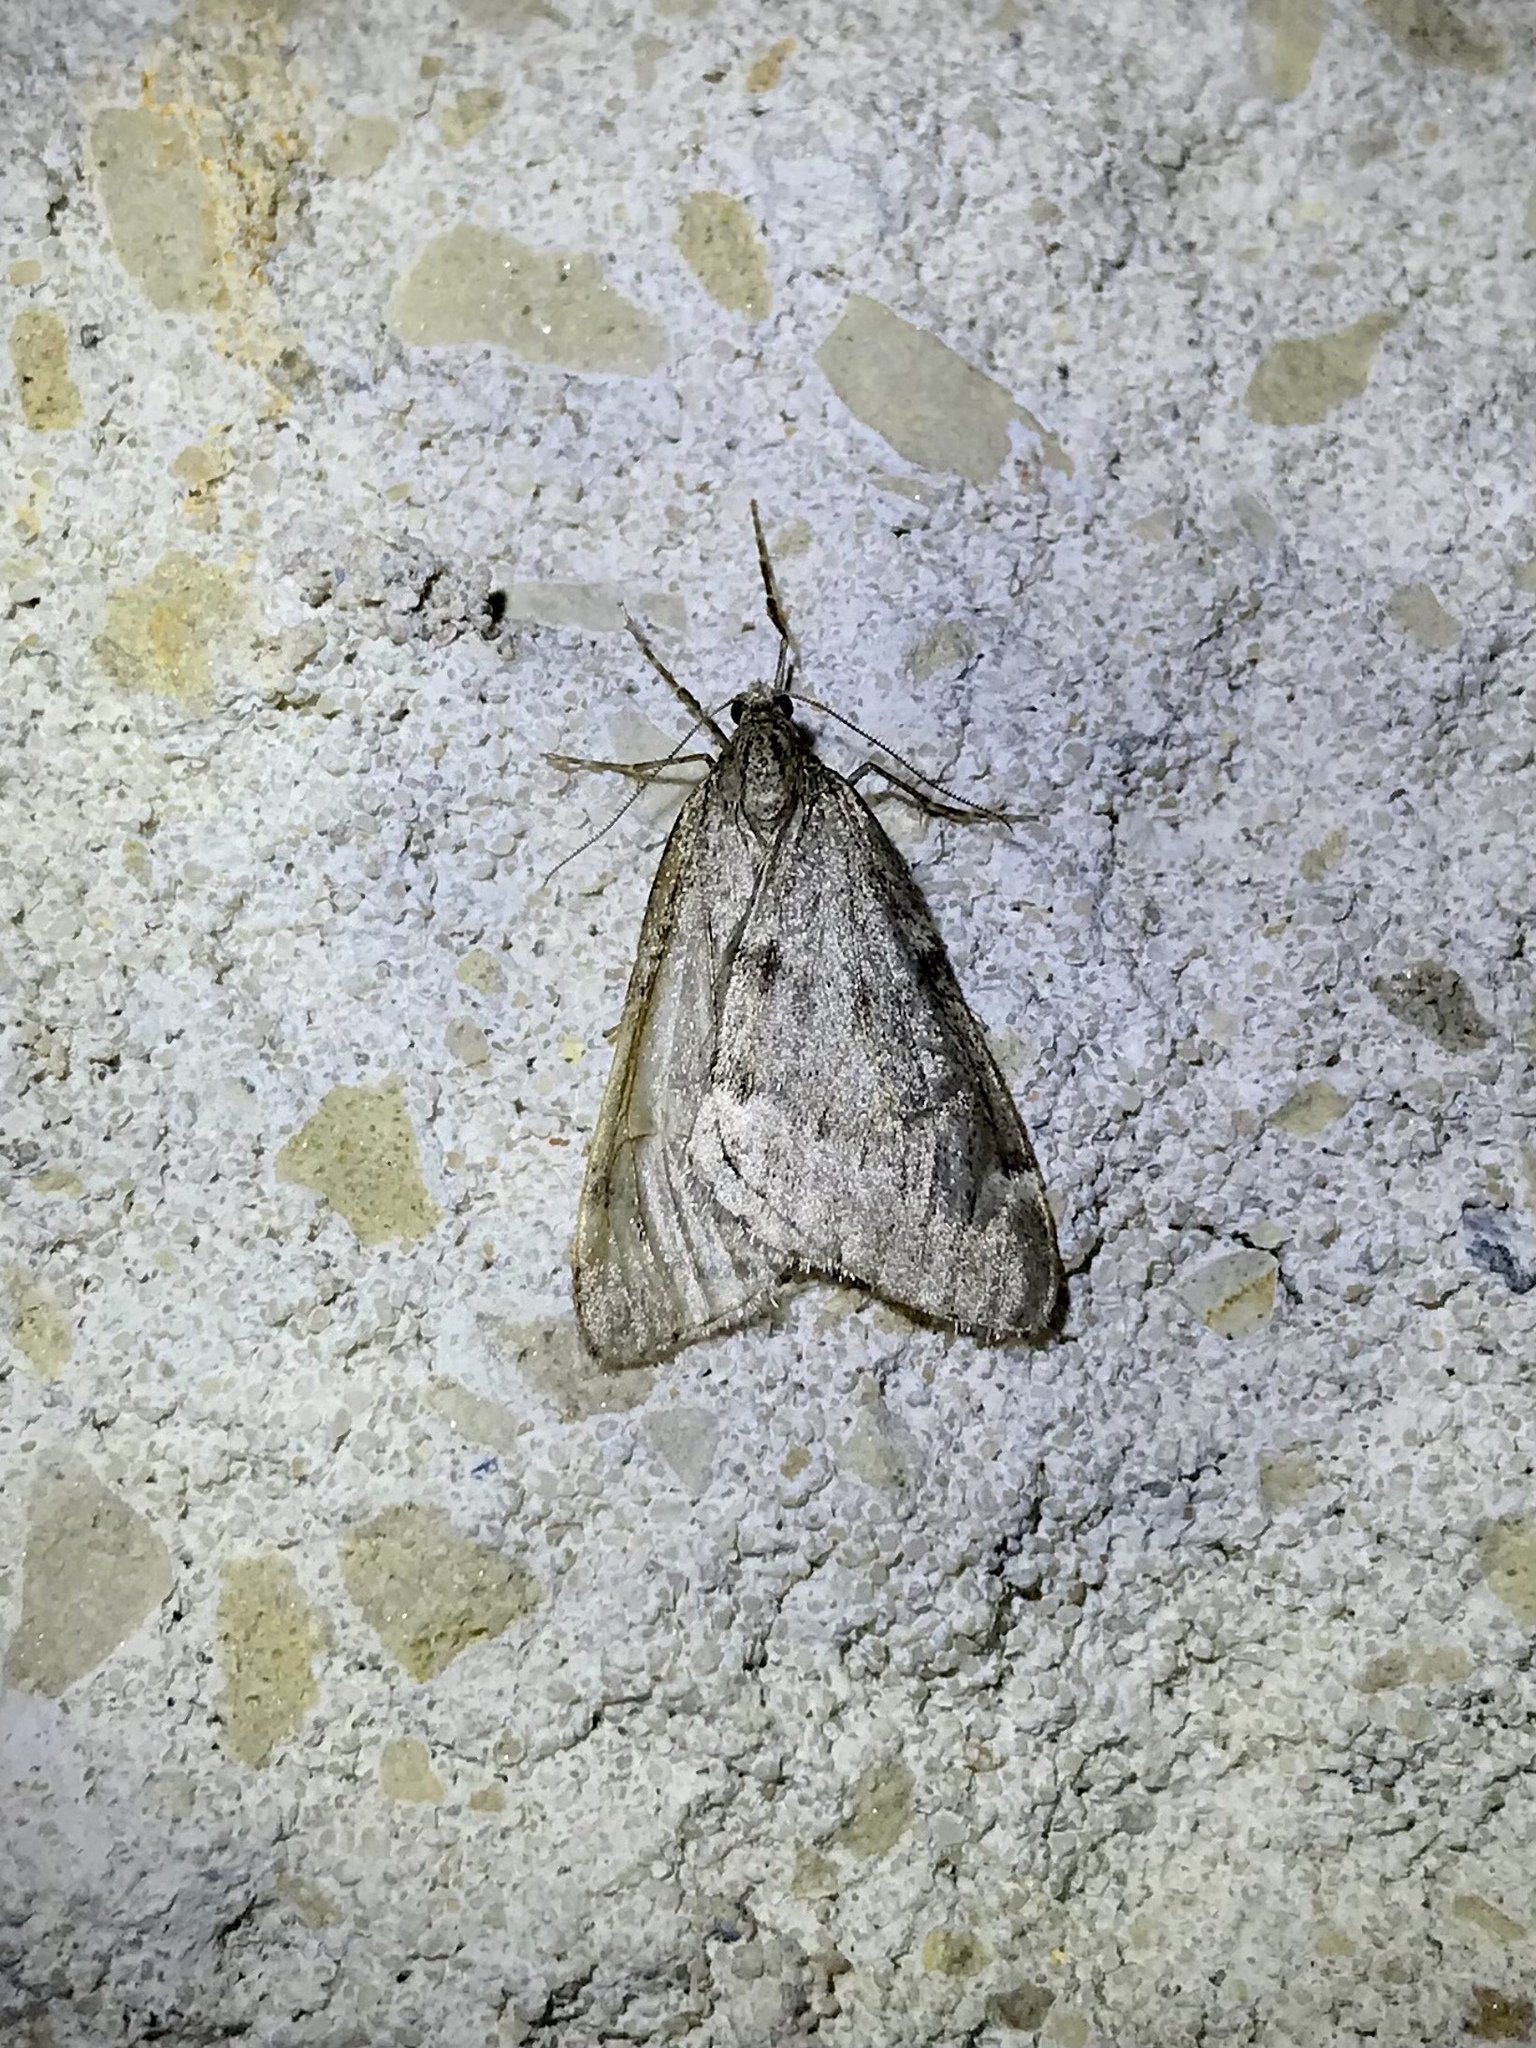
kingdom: Animalia
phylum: Arthropoda
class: Insecta
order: Lepidoptera
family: Geometridae
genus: Alsophila
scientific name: Alsophila pometaria
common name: Fall cankerworm
